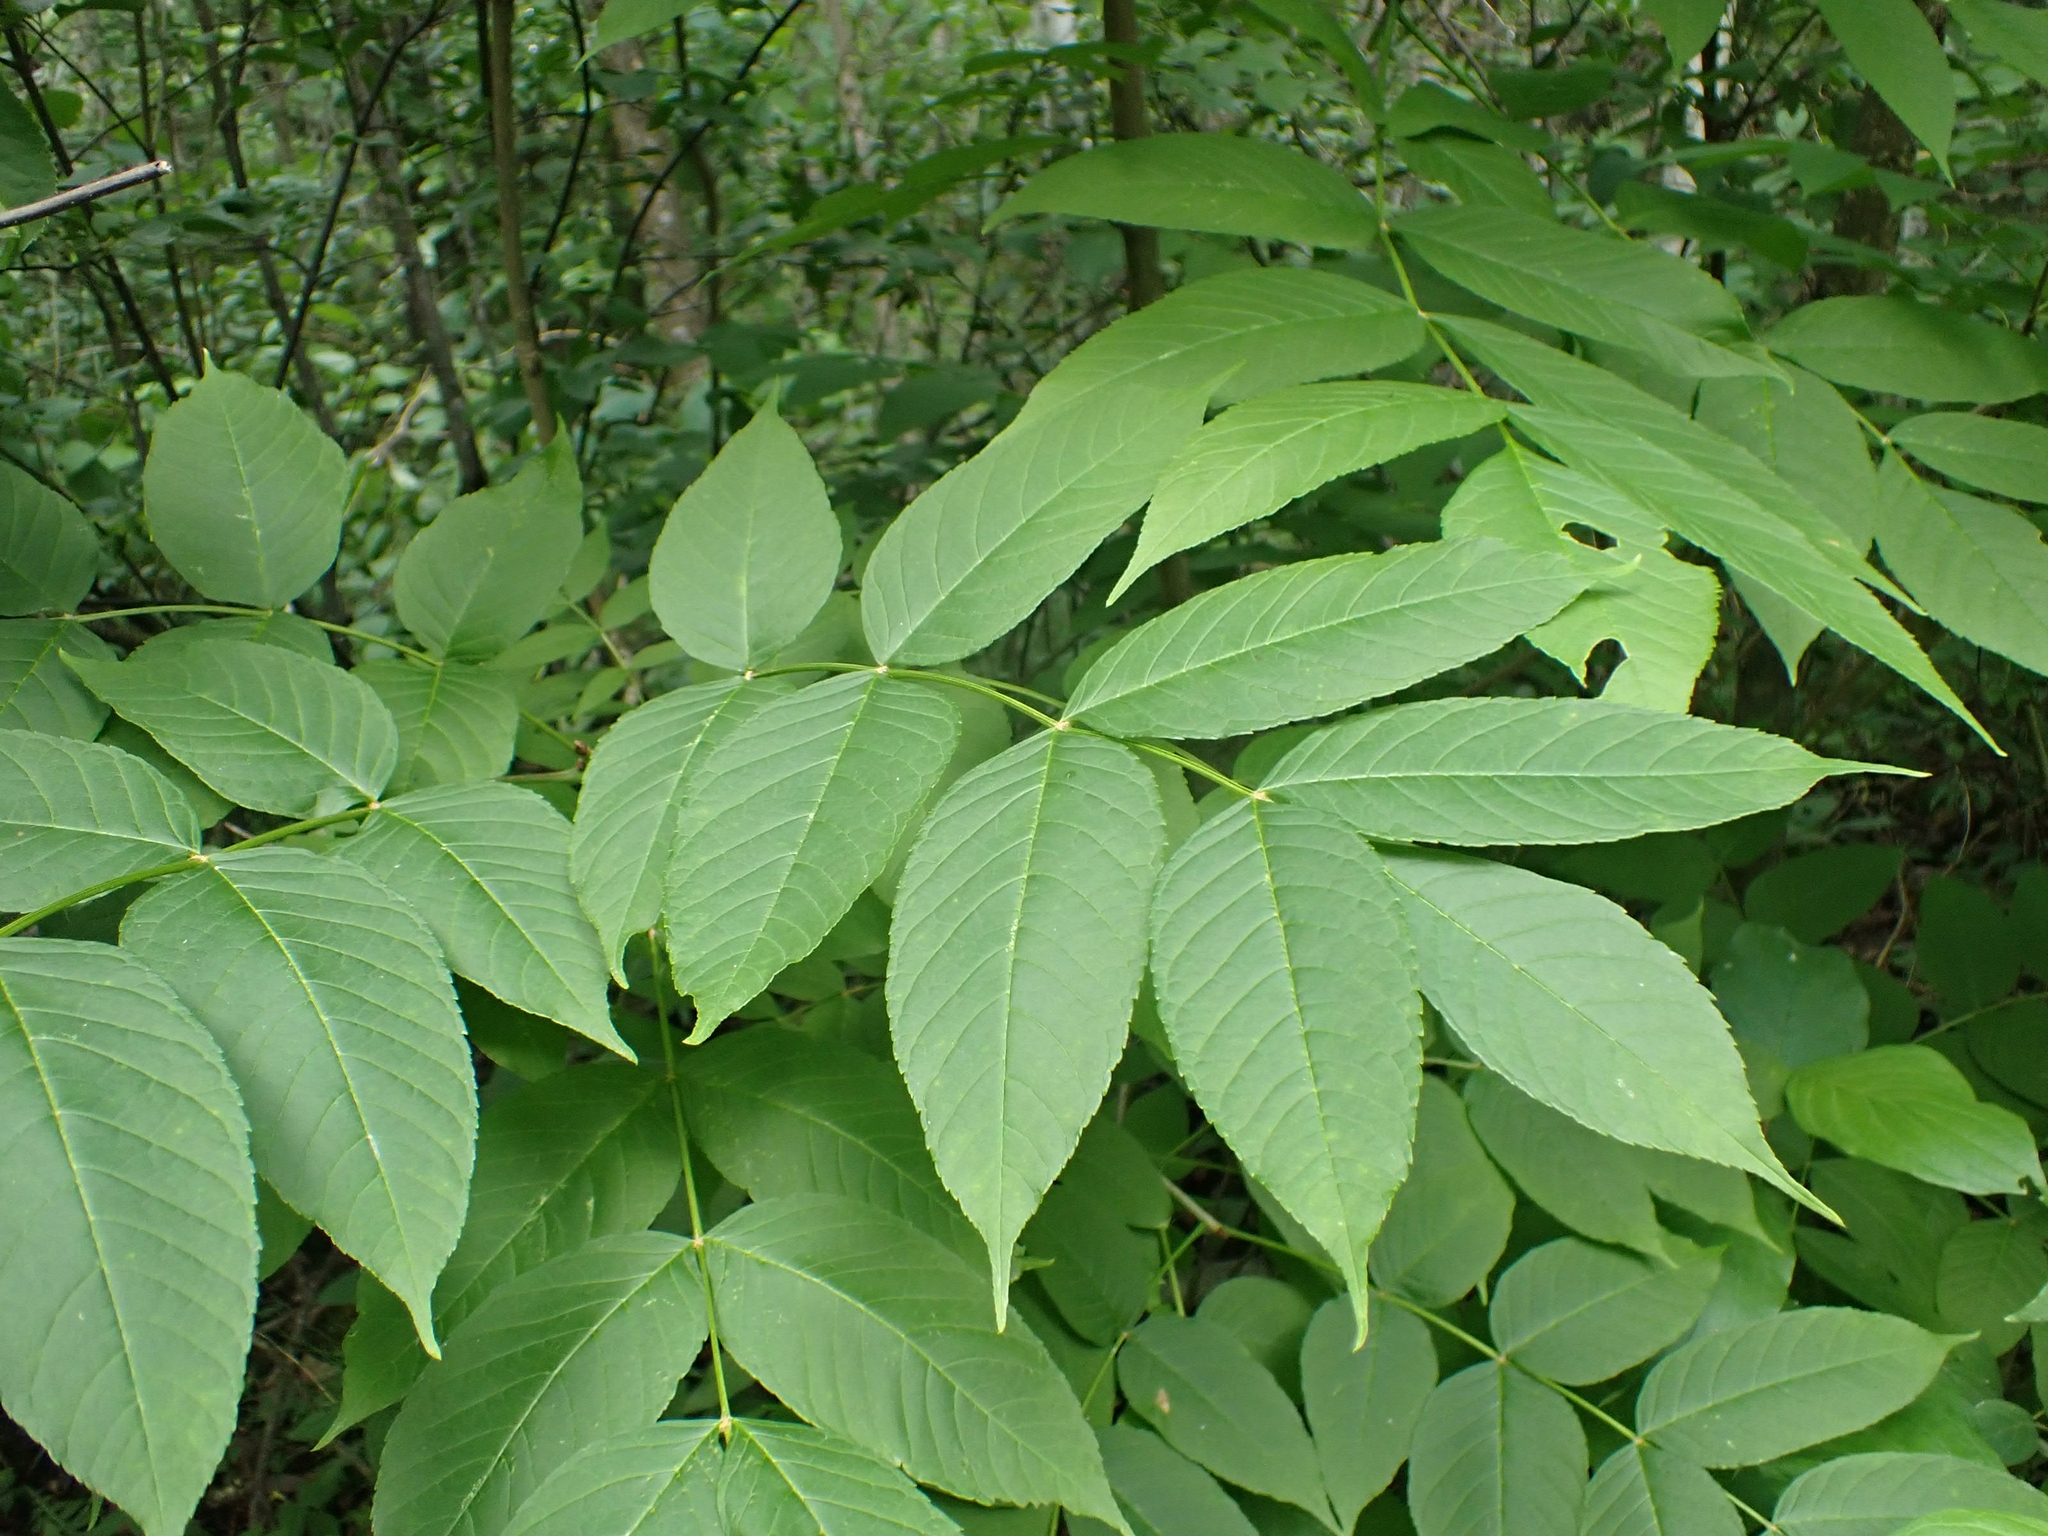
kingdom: Plantae
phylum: Tracheophyta
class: Magnoliopsida
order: Lamiales
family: Oleaceae
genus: Fraxinus
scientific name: Fraxinus nigra
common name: Black ash
